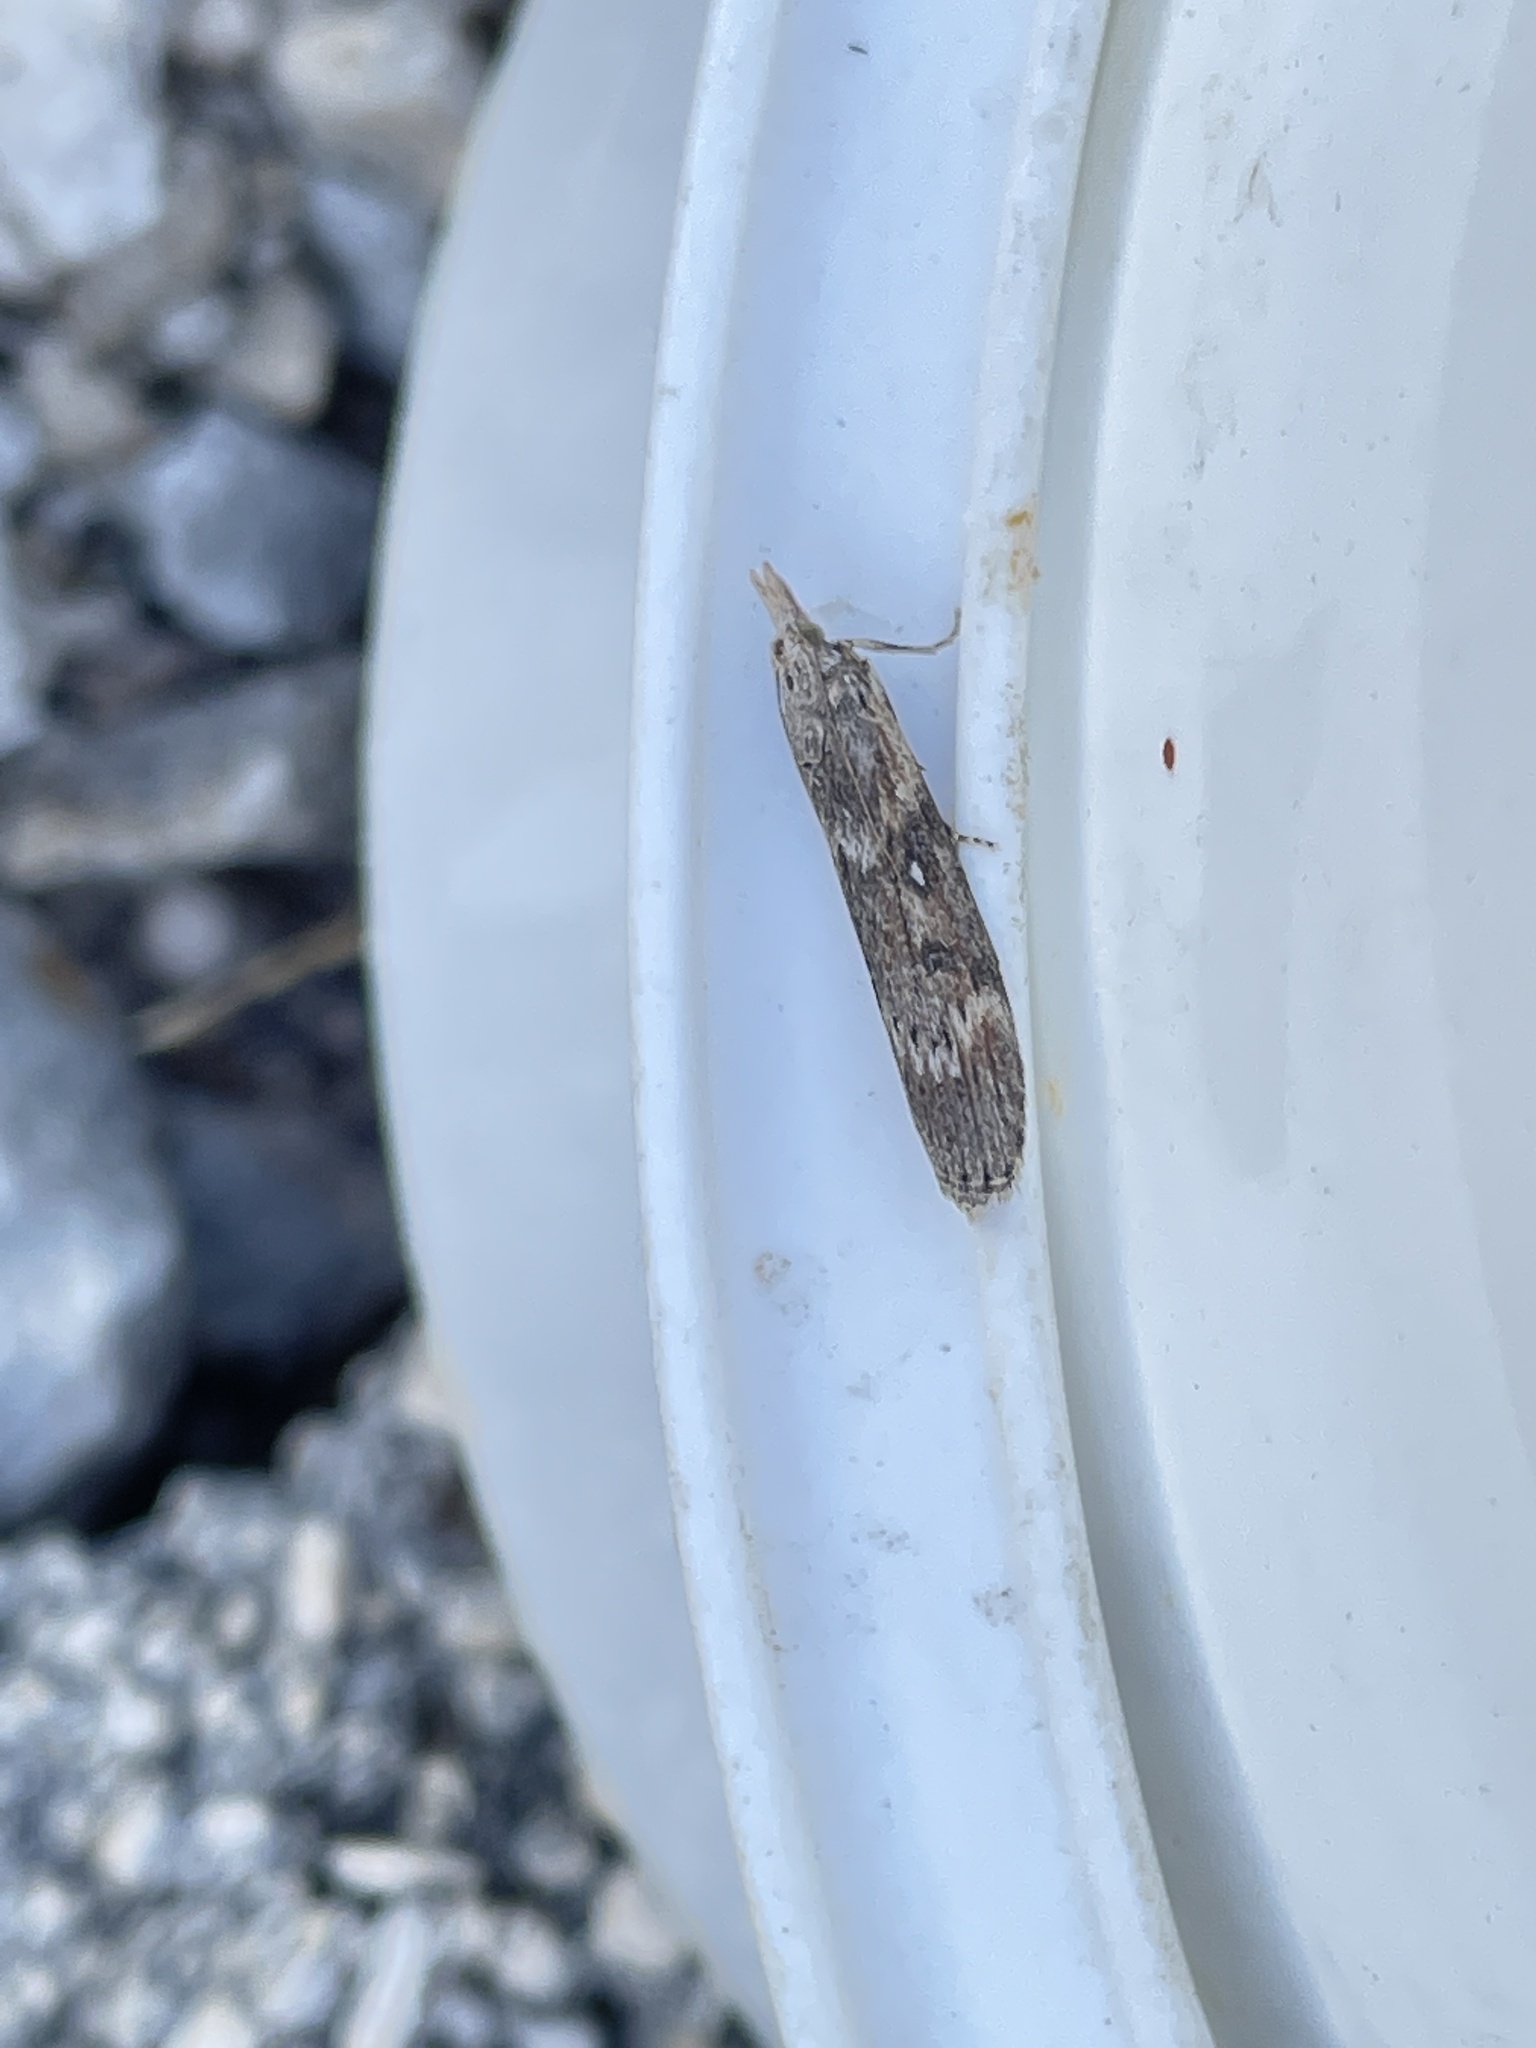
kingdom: Animalia
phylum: Arthropoda
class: Insecta
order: Lepidoptera
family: Pyralidae
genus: Lamoria
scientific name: Lamoria anella
